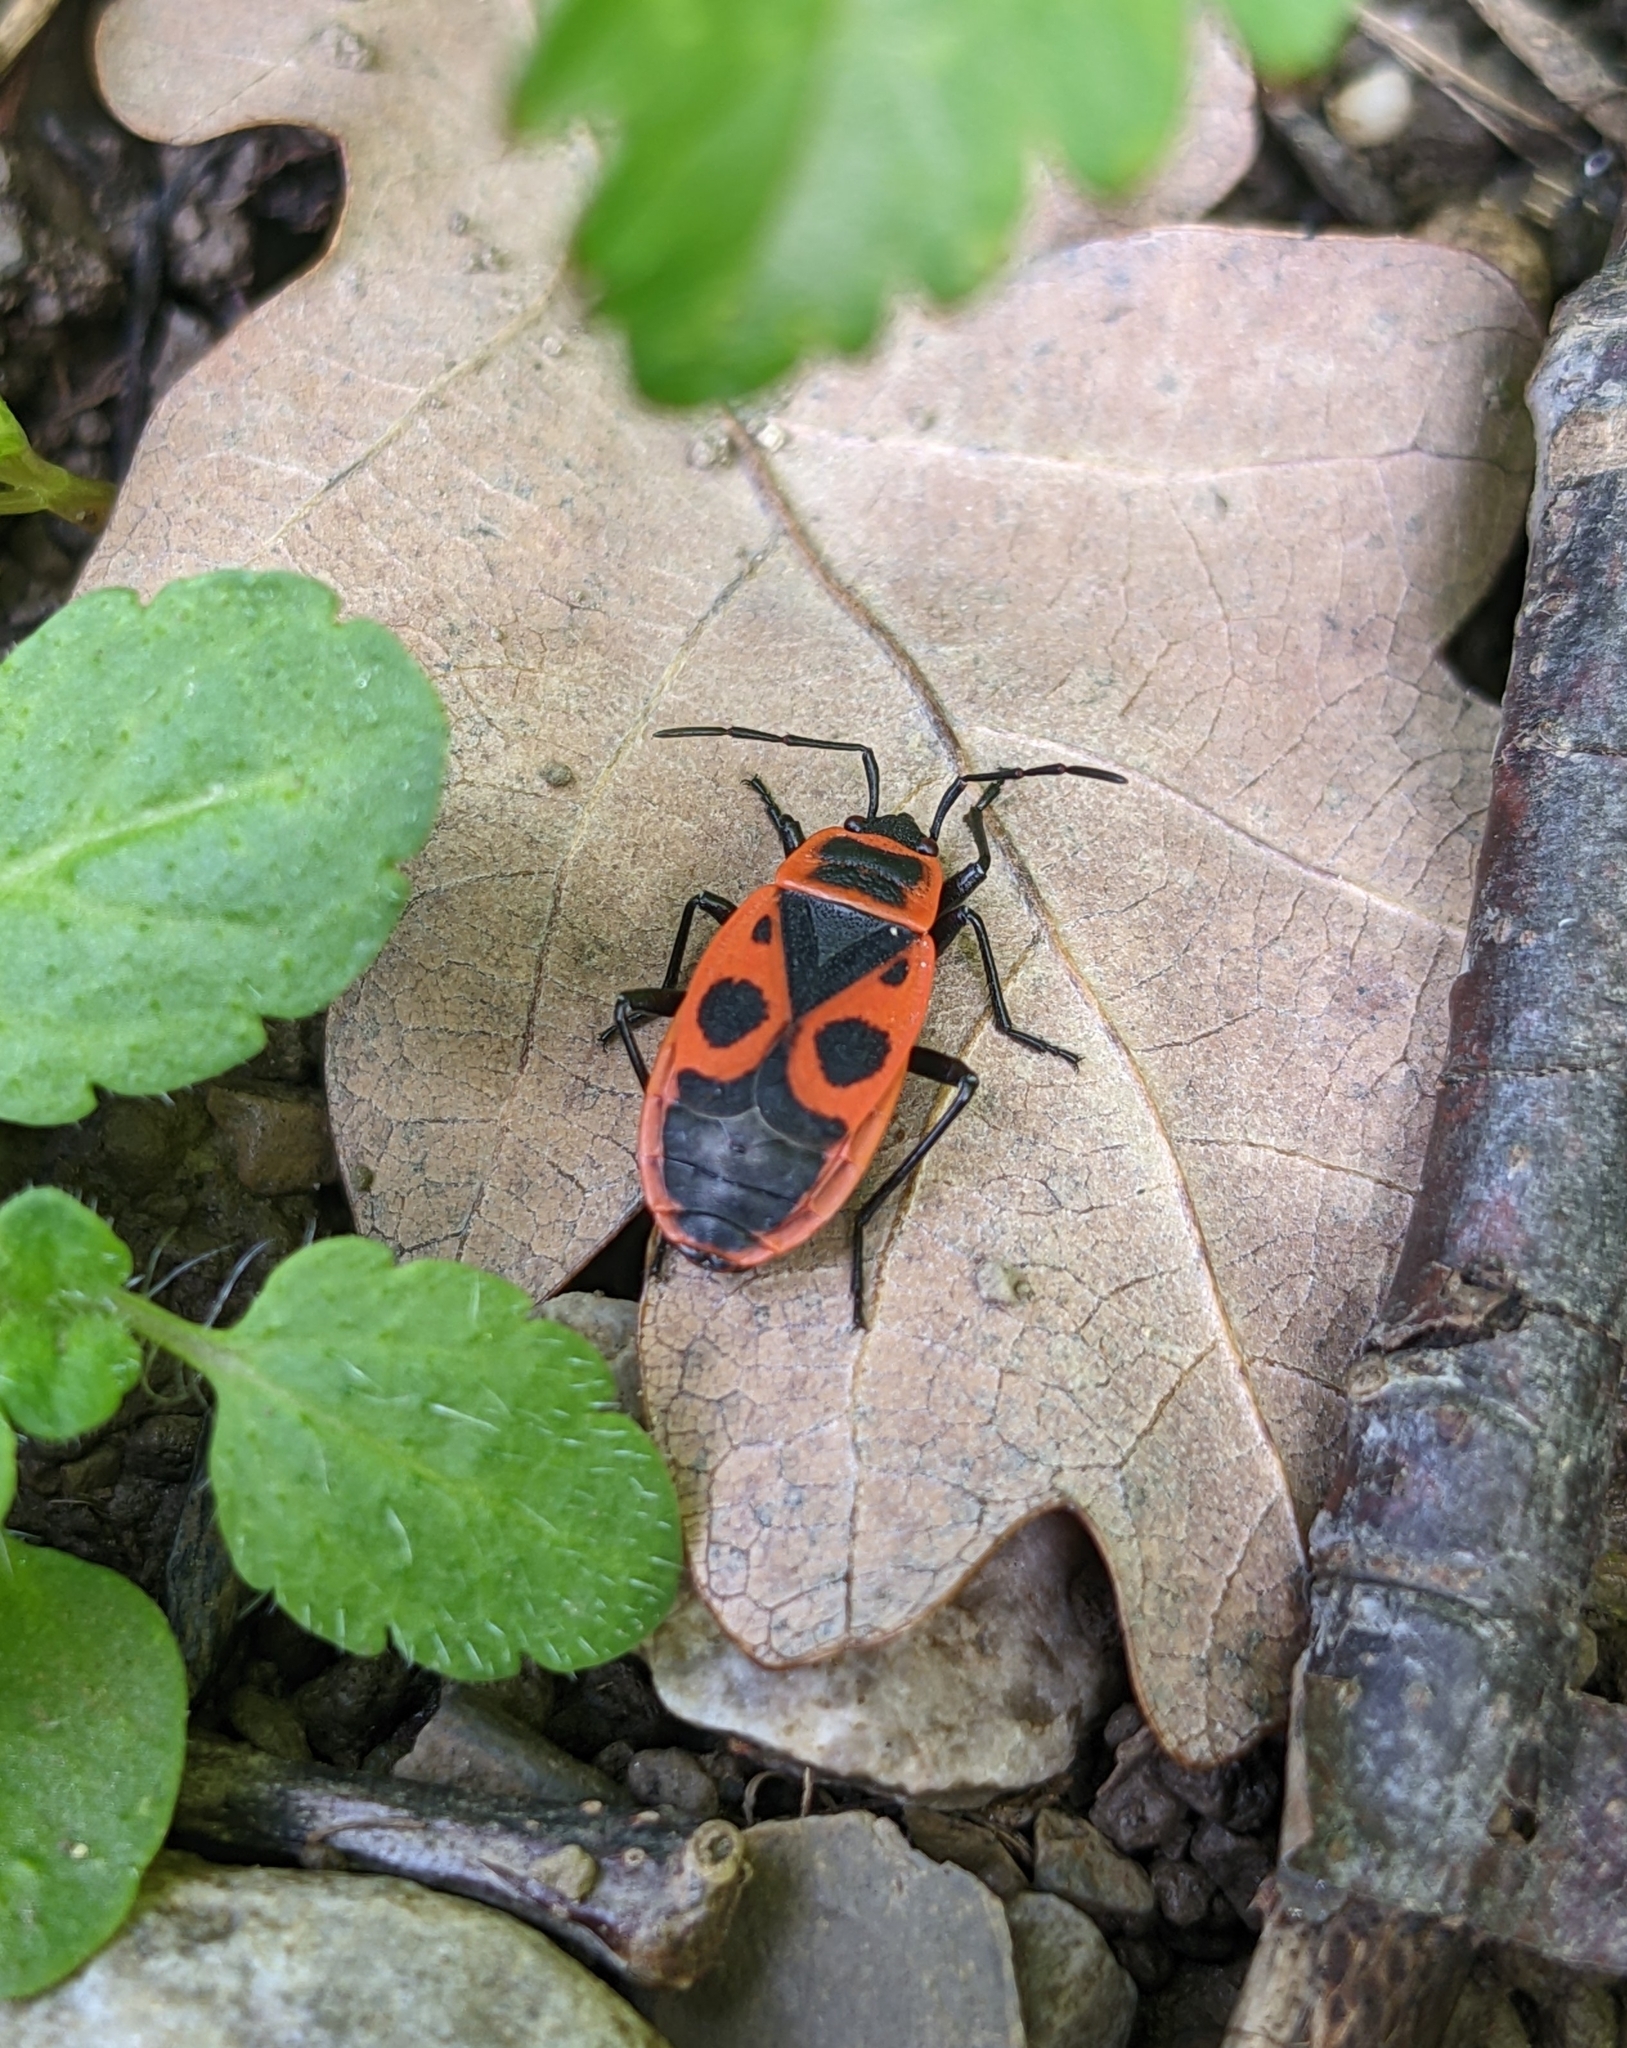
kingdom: Animalia
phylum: Arthropoda
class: Insecta
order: Hemiptera
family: Pyrrhocoridae
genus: Pyrrhocoris
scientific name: Pyrrhocoris apterus
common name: Firebug
